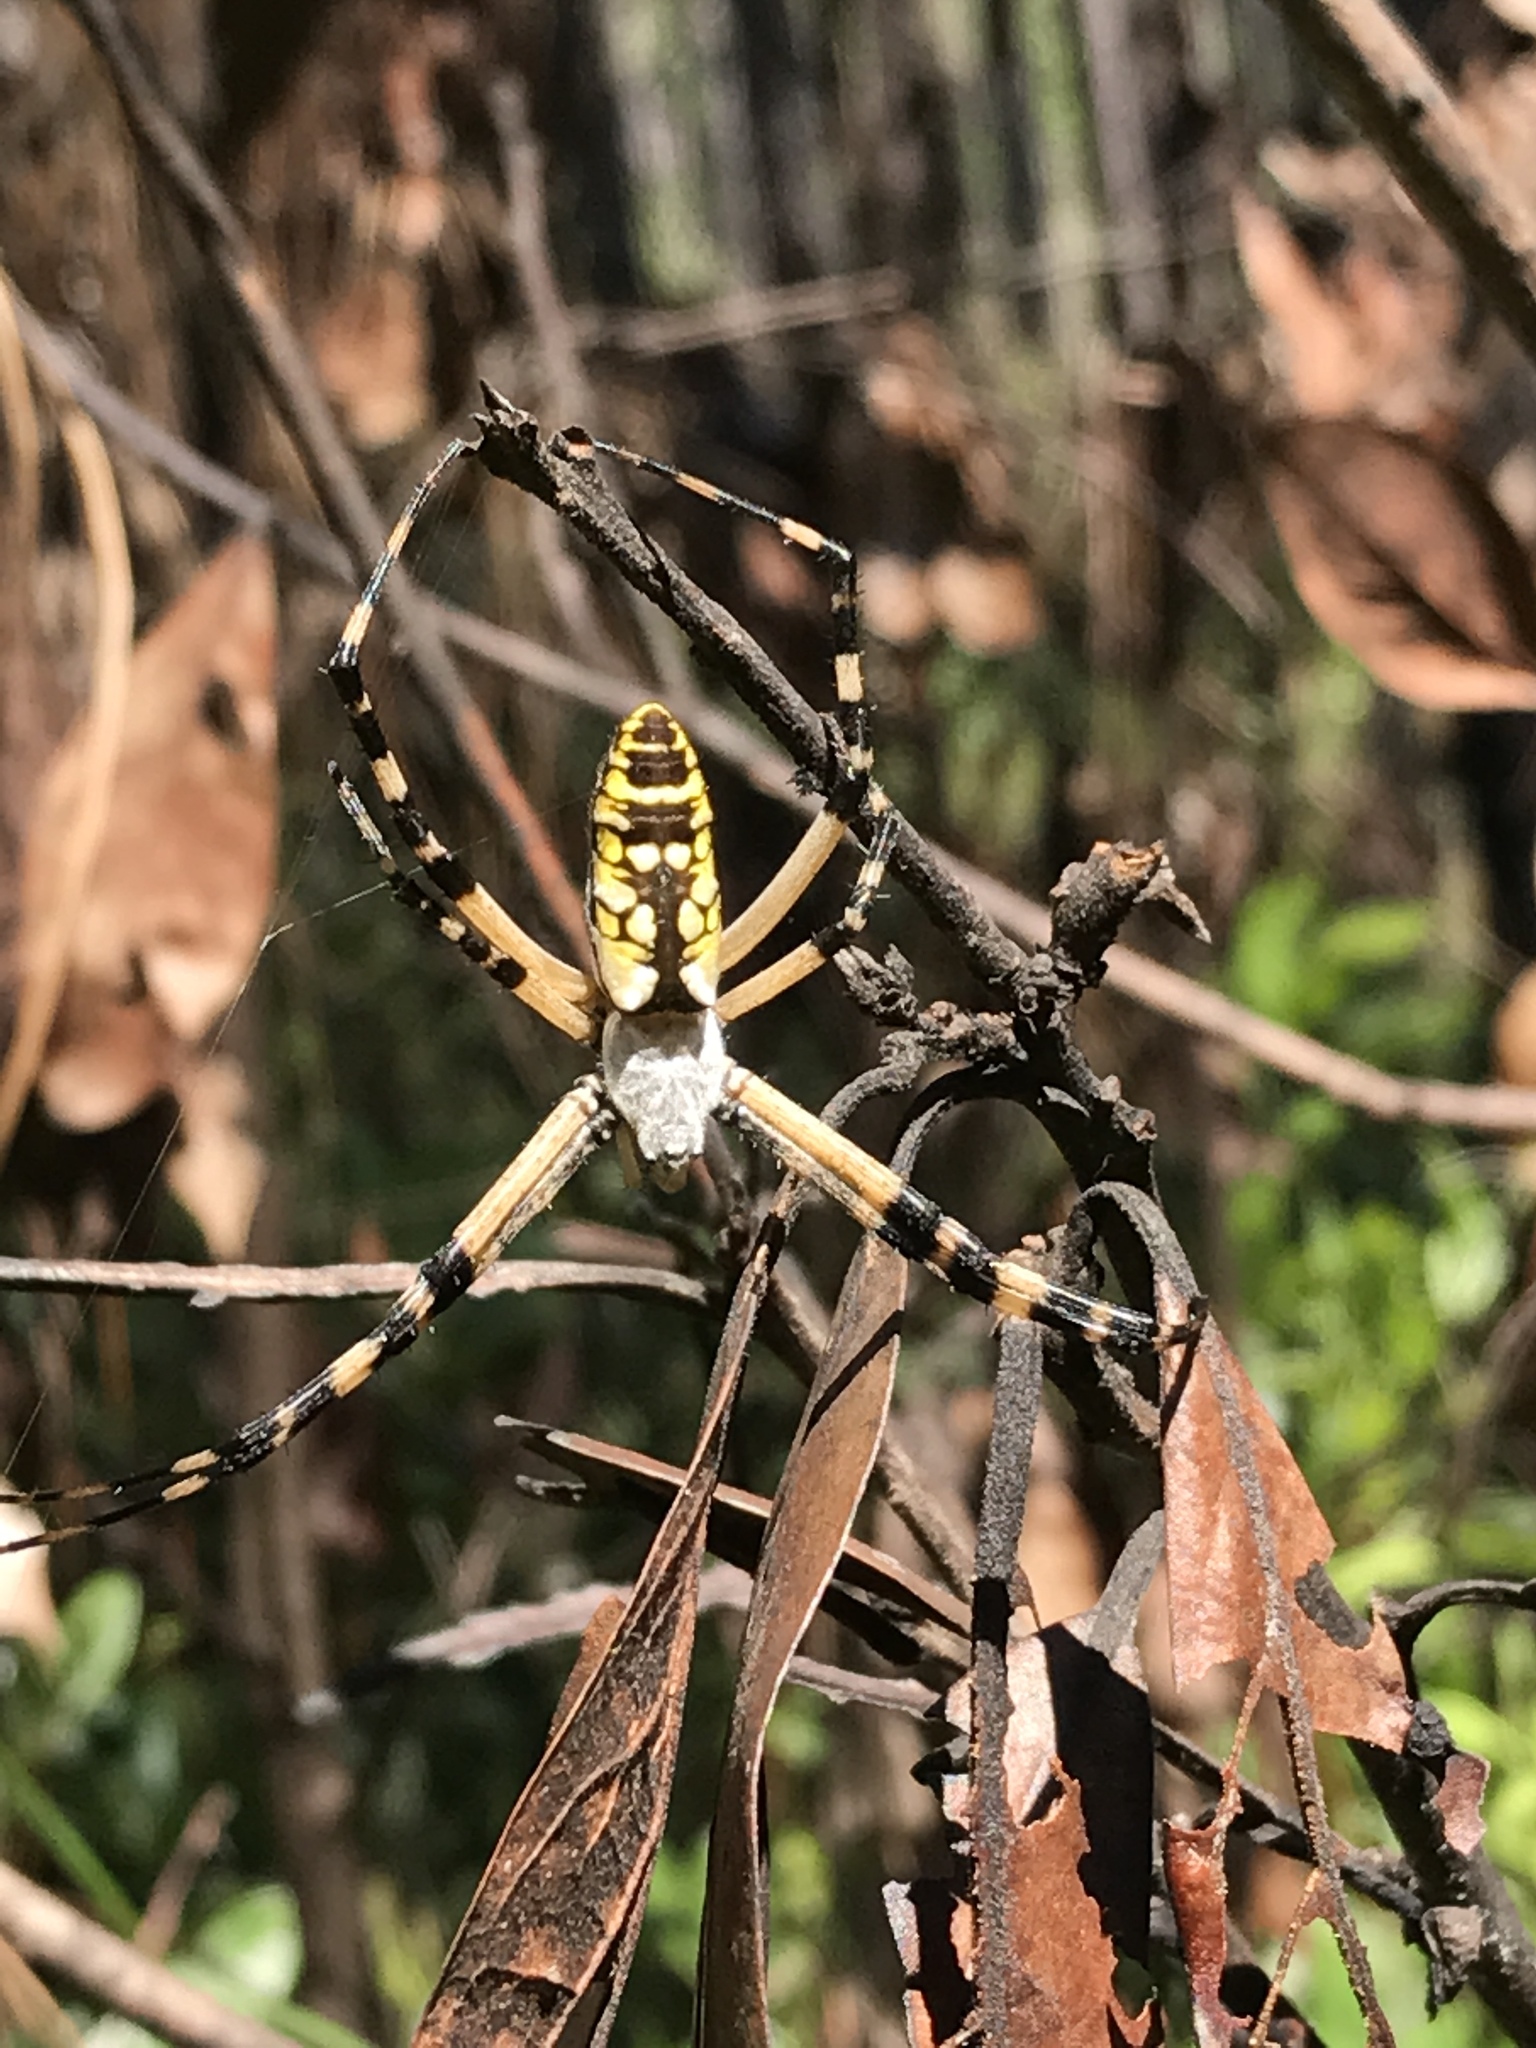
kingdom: Animalia
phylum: Arthropoda
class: Arachnida
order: Araneae
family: Araneidae
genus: Argiope
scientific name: Argiope aurantia
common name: Orb weavers
